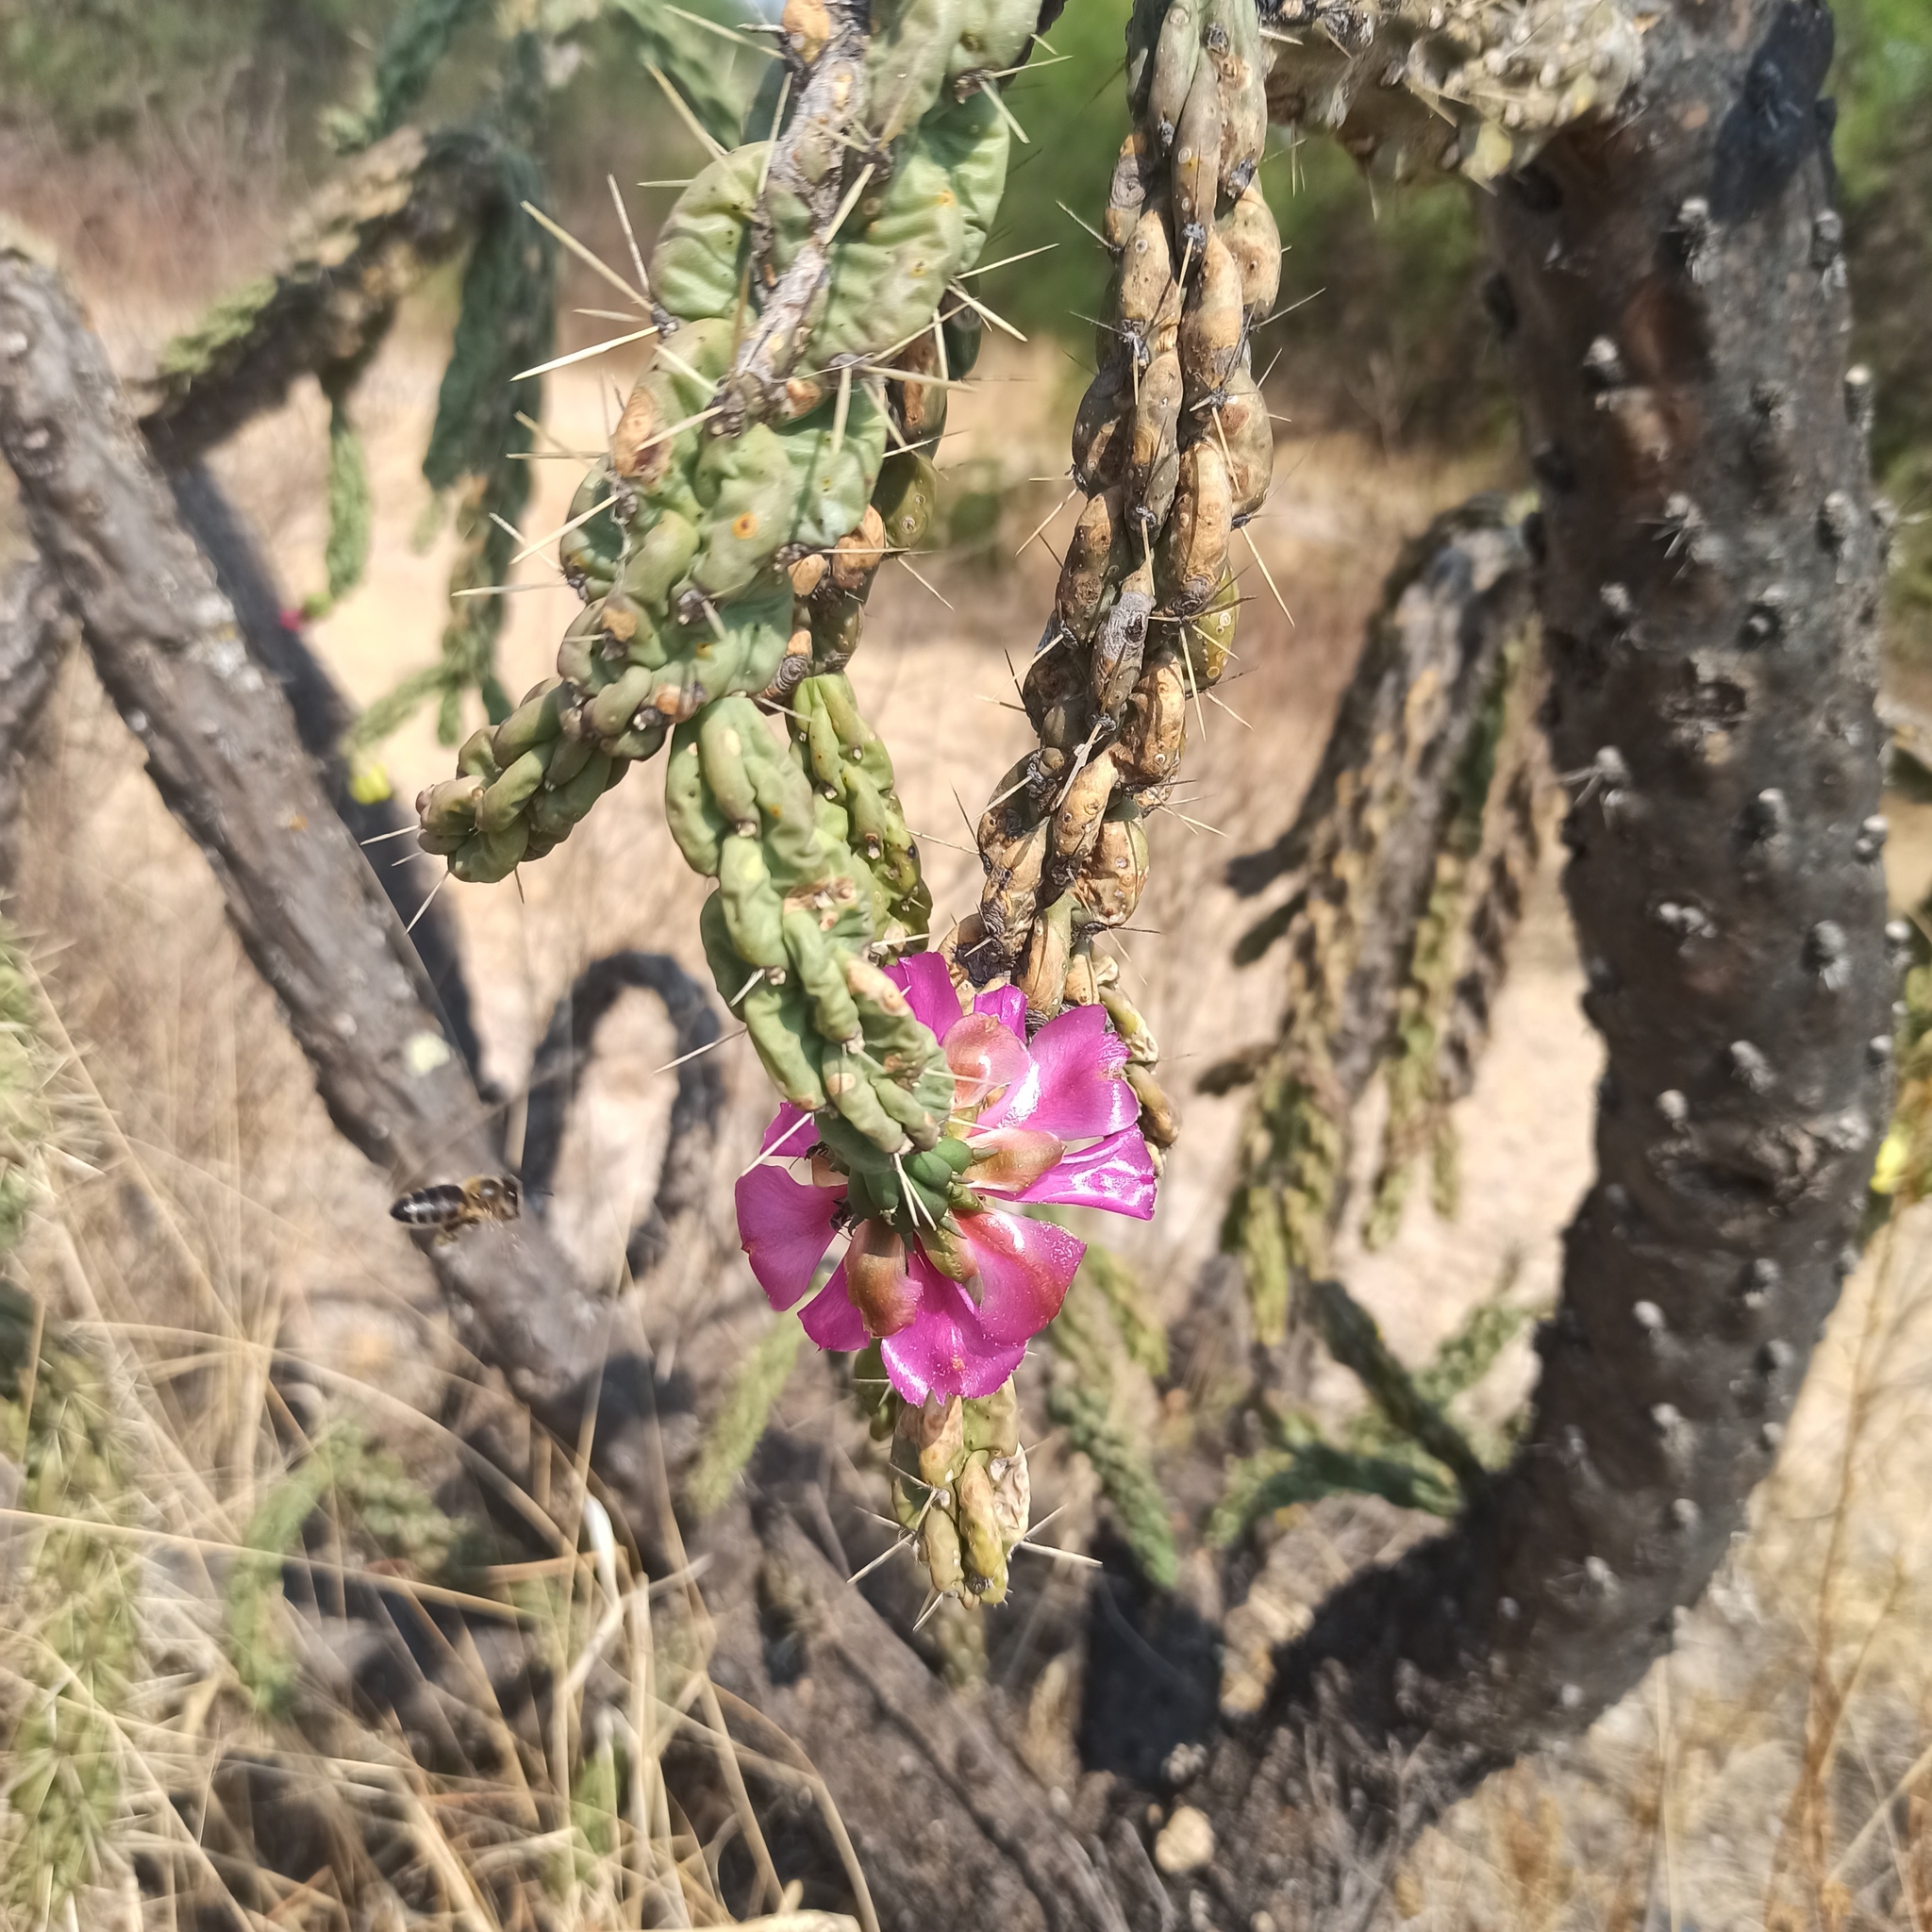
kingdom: Plantae
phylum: Tracheophyta
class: Magnoliopsida
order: Caryophyllales
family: Cactaceae
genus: Cylindropuntia
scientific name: Cylindropuntia imbricata
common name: Candelabrum cactus
